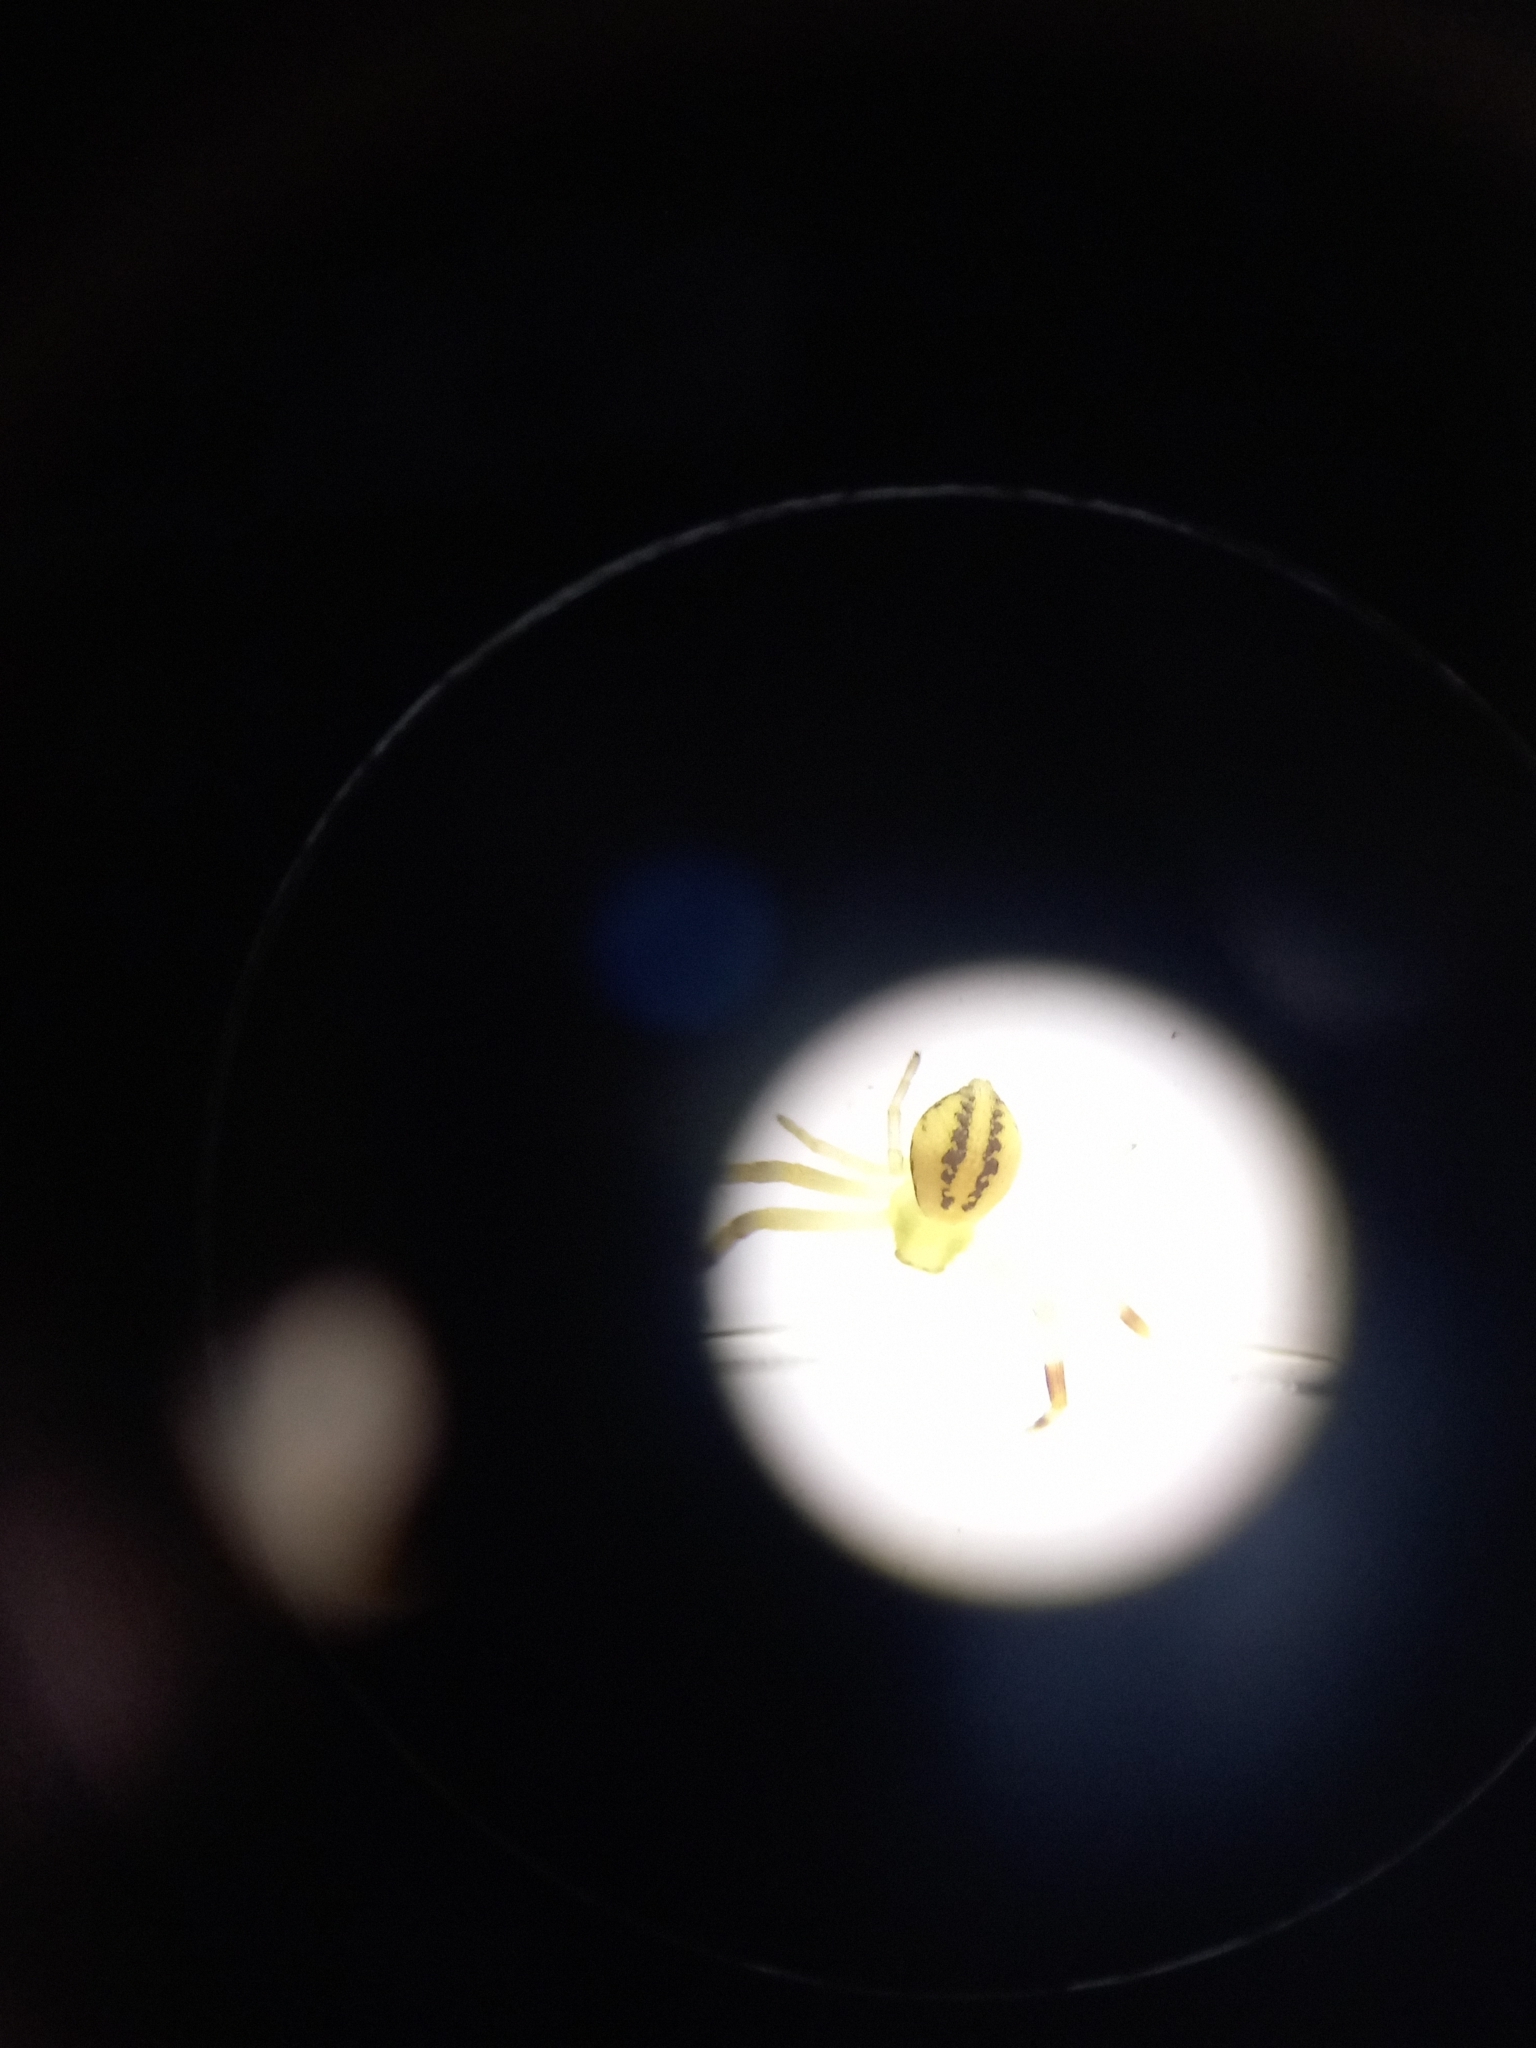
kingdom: Animalia
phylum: Arthropoda
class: Arachnida
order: Araneae
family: Thomisidae
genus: Misumena
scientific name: Misumena vatia
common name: Goldenrod crab spider
